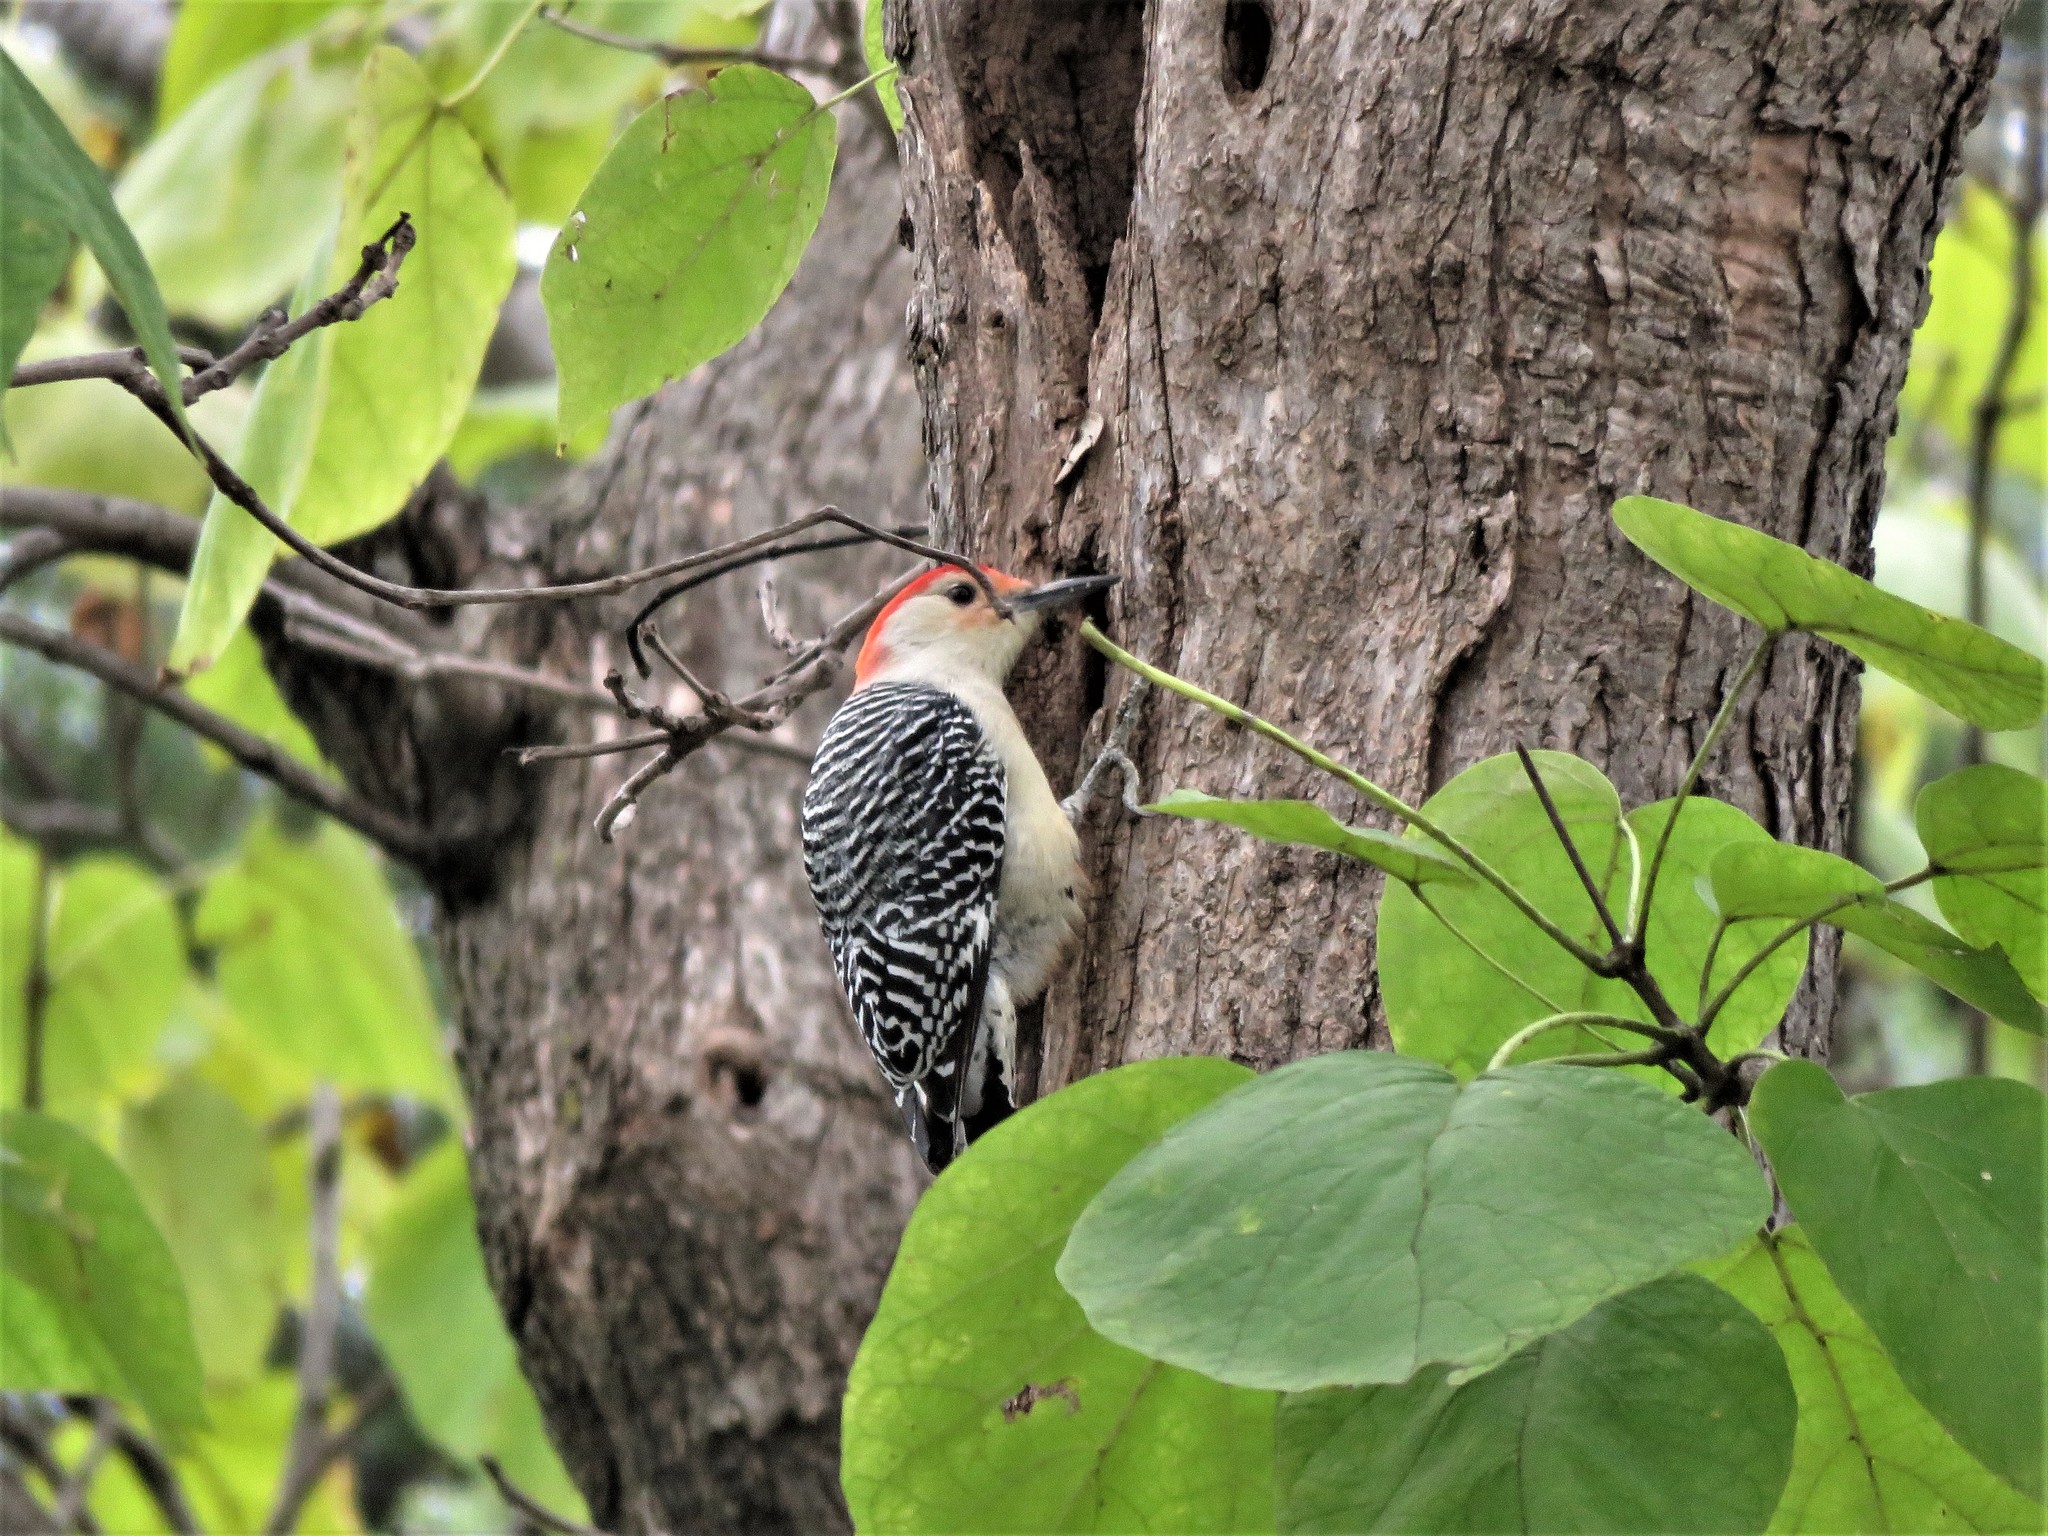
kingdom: Animalia
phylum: Chordata
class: Aves
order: Piciformes
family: Picidae
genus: Melanerpes
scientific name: Melanerpes carolinus
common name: Red-bellied woodpecker
